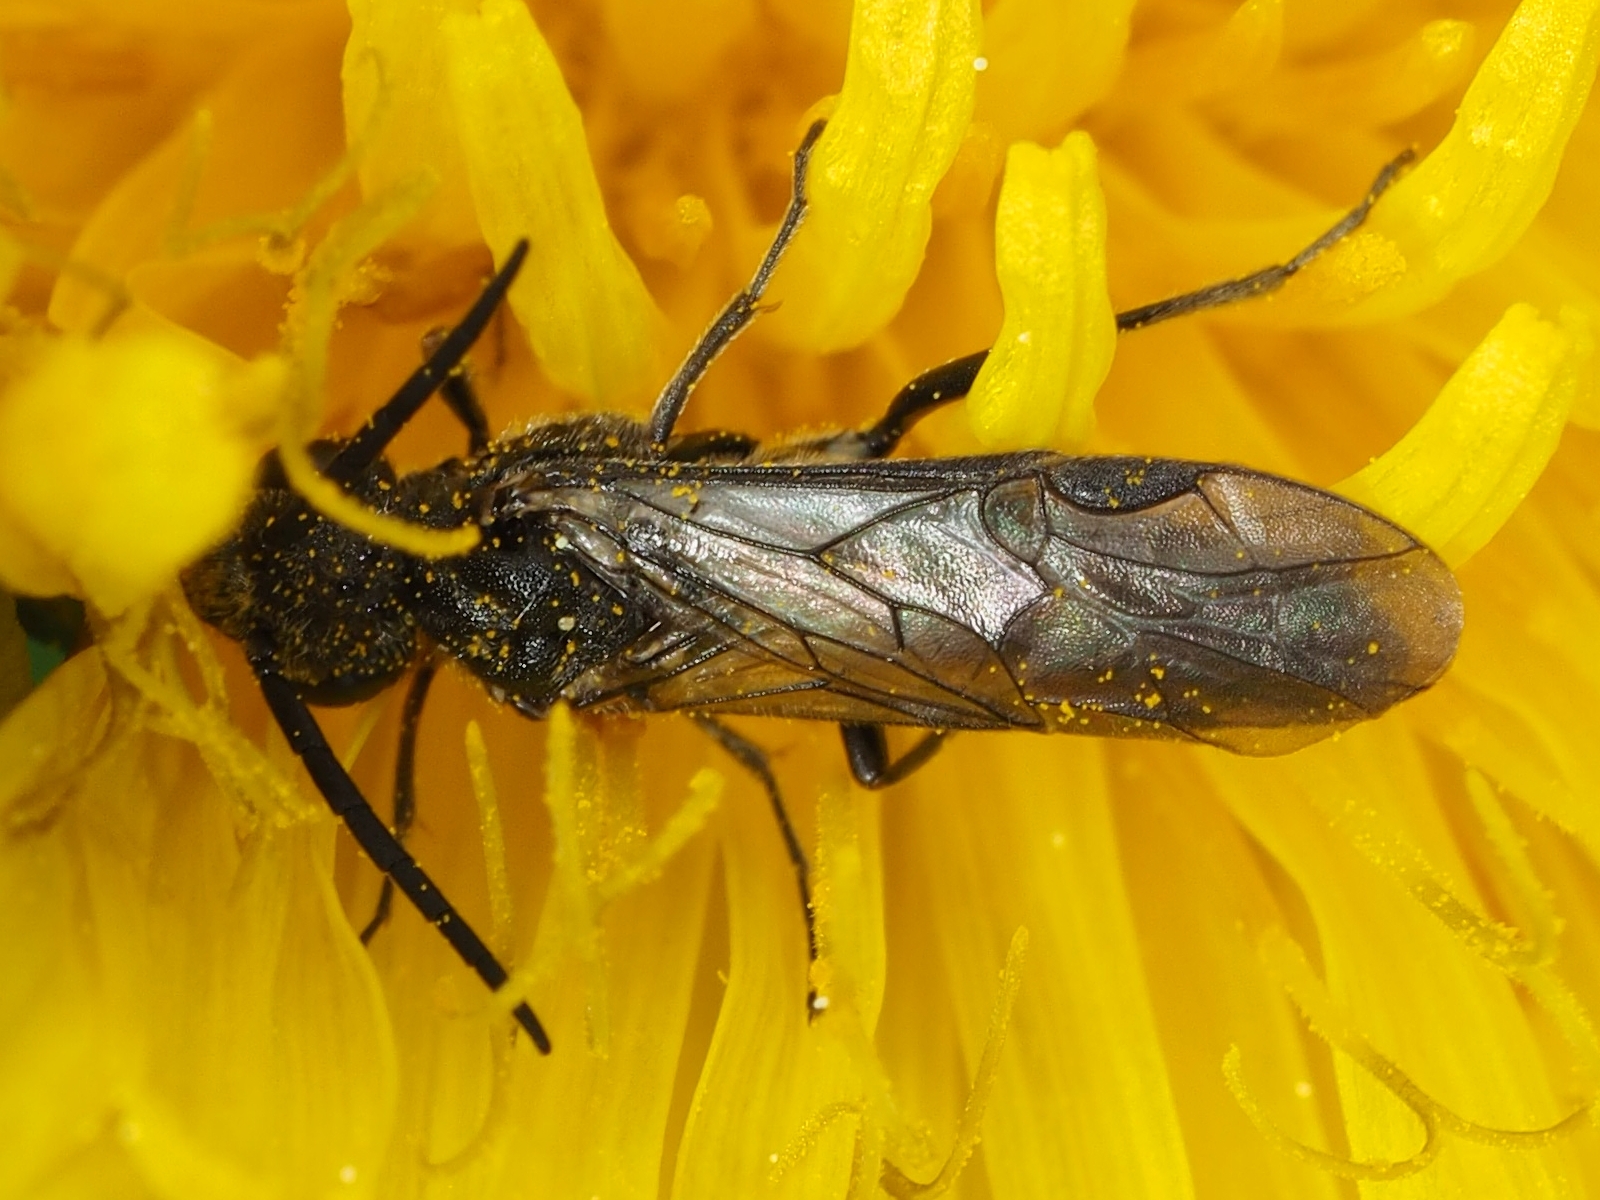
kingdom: Animalia
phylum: Arthropoda
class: Insecta
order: Hymenoptera
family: Tenthredinidae
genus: Dolerus
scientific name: Dolerus eversmanni
